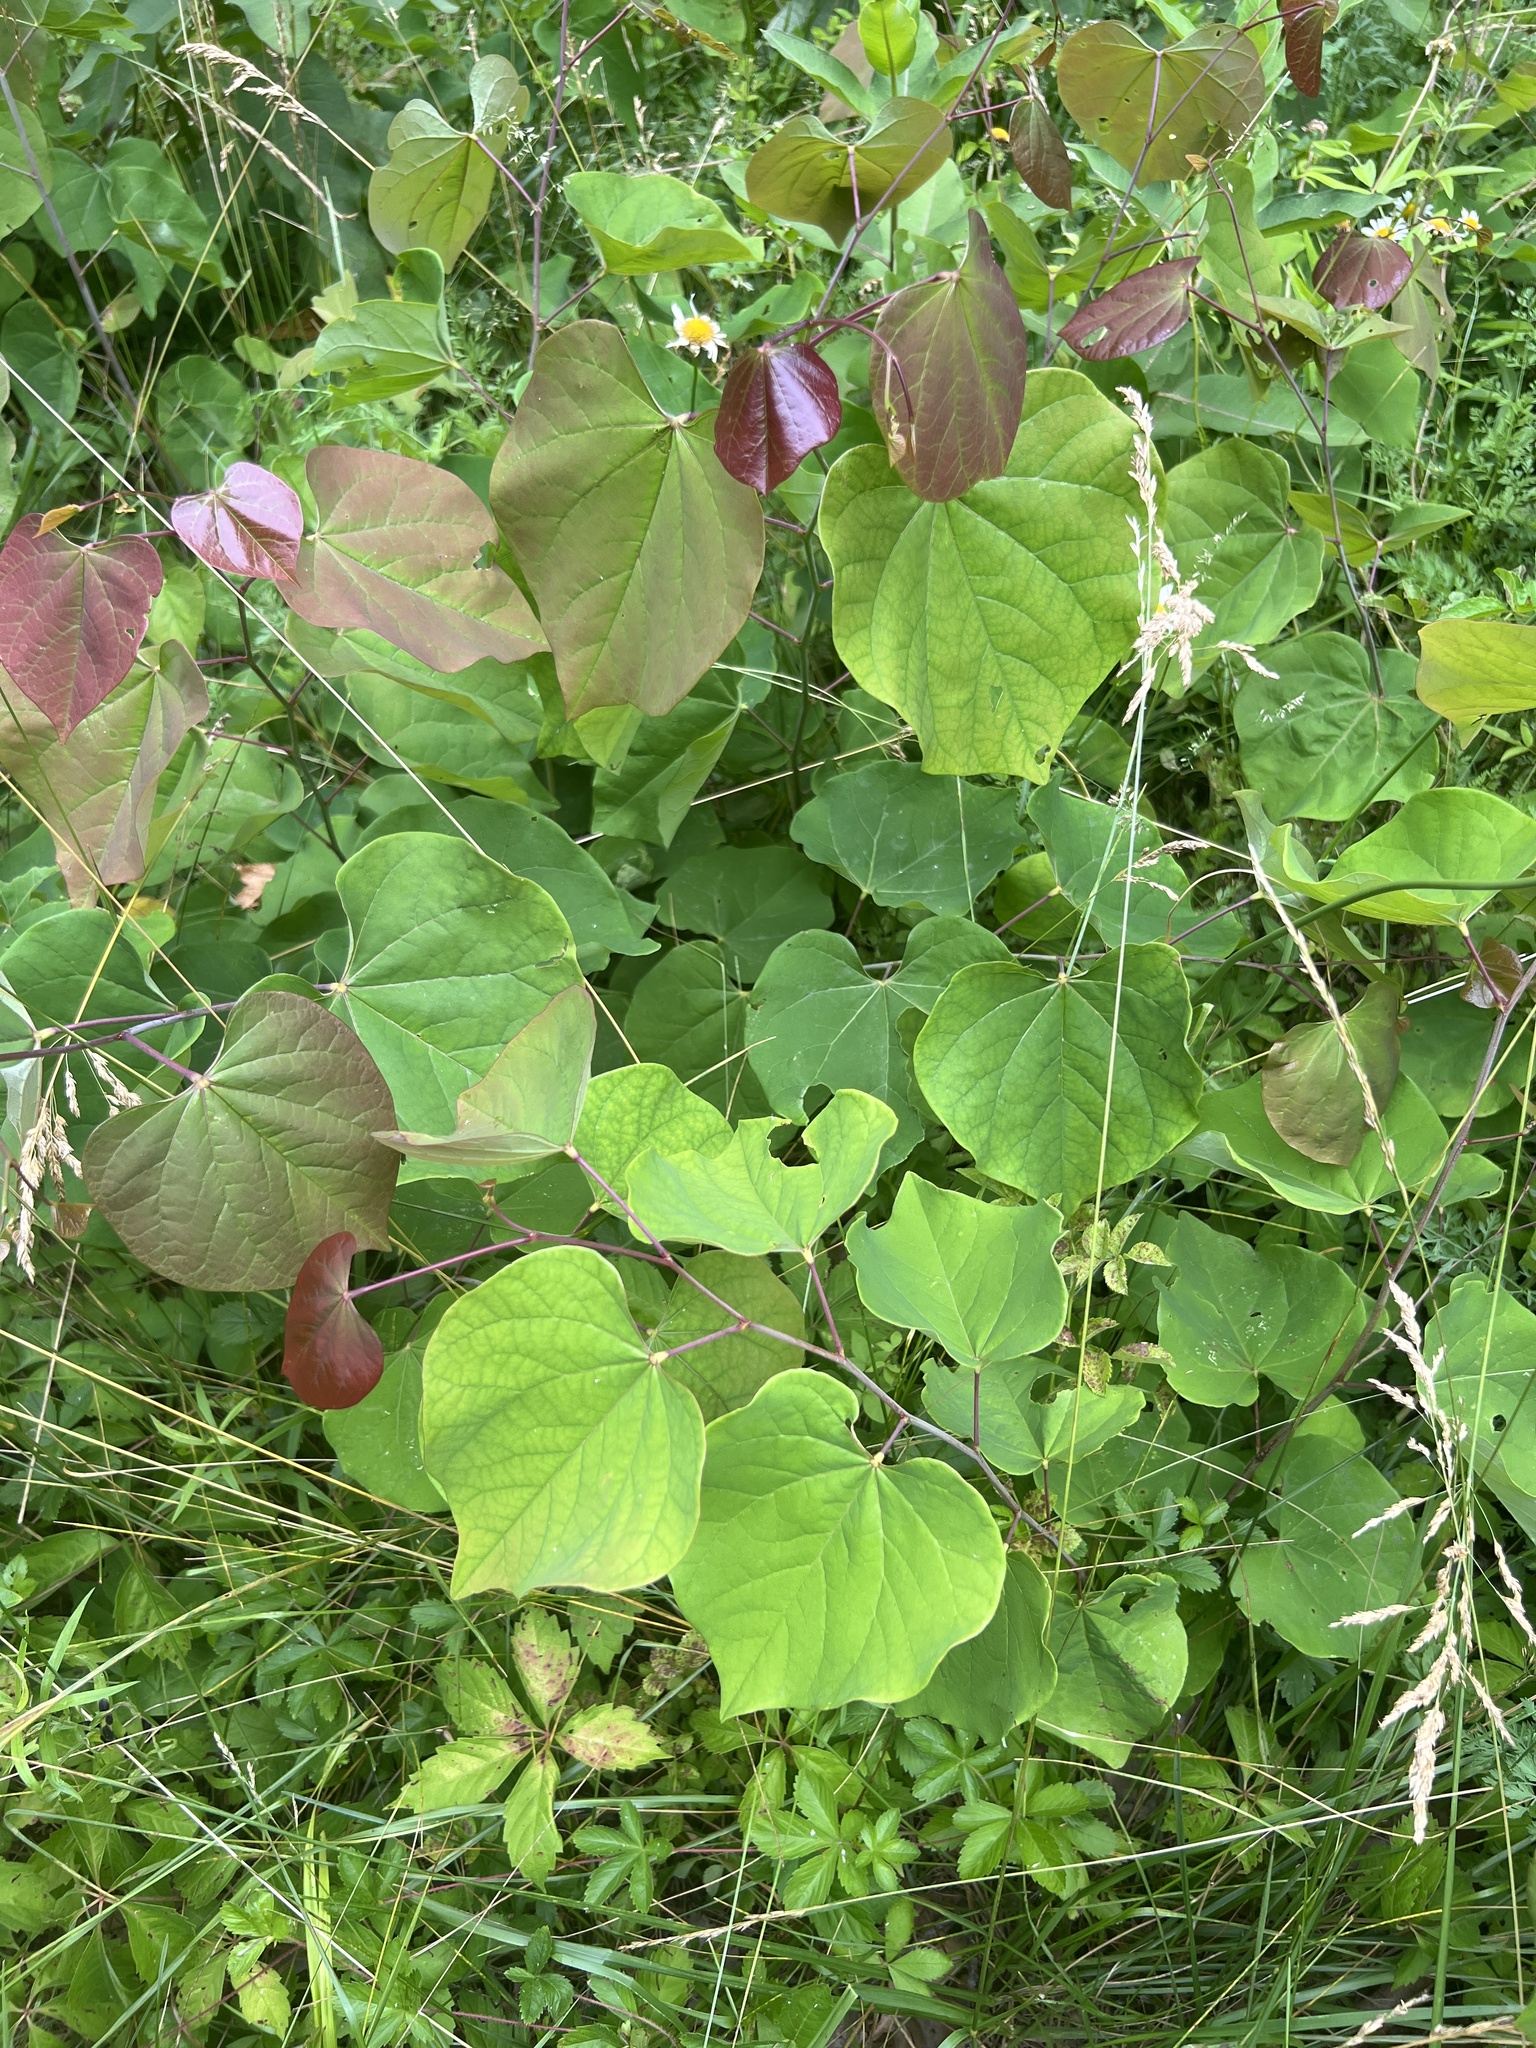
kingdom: Plantae
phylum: Tracheophyta
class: Magnoliopsida
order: Fabales
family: Fabaceae
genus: Cercis
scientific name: Cercis canadensis
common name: Eastern redbud
